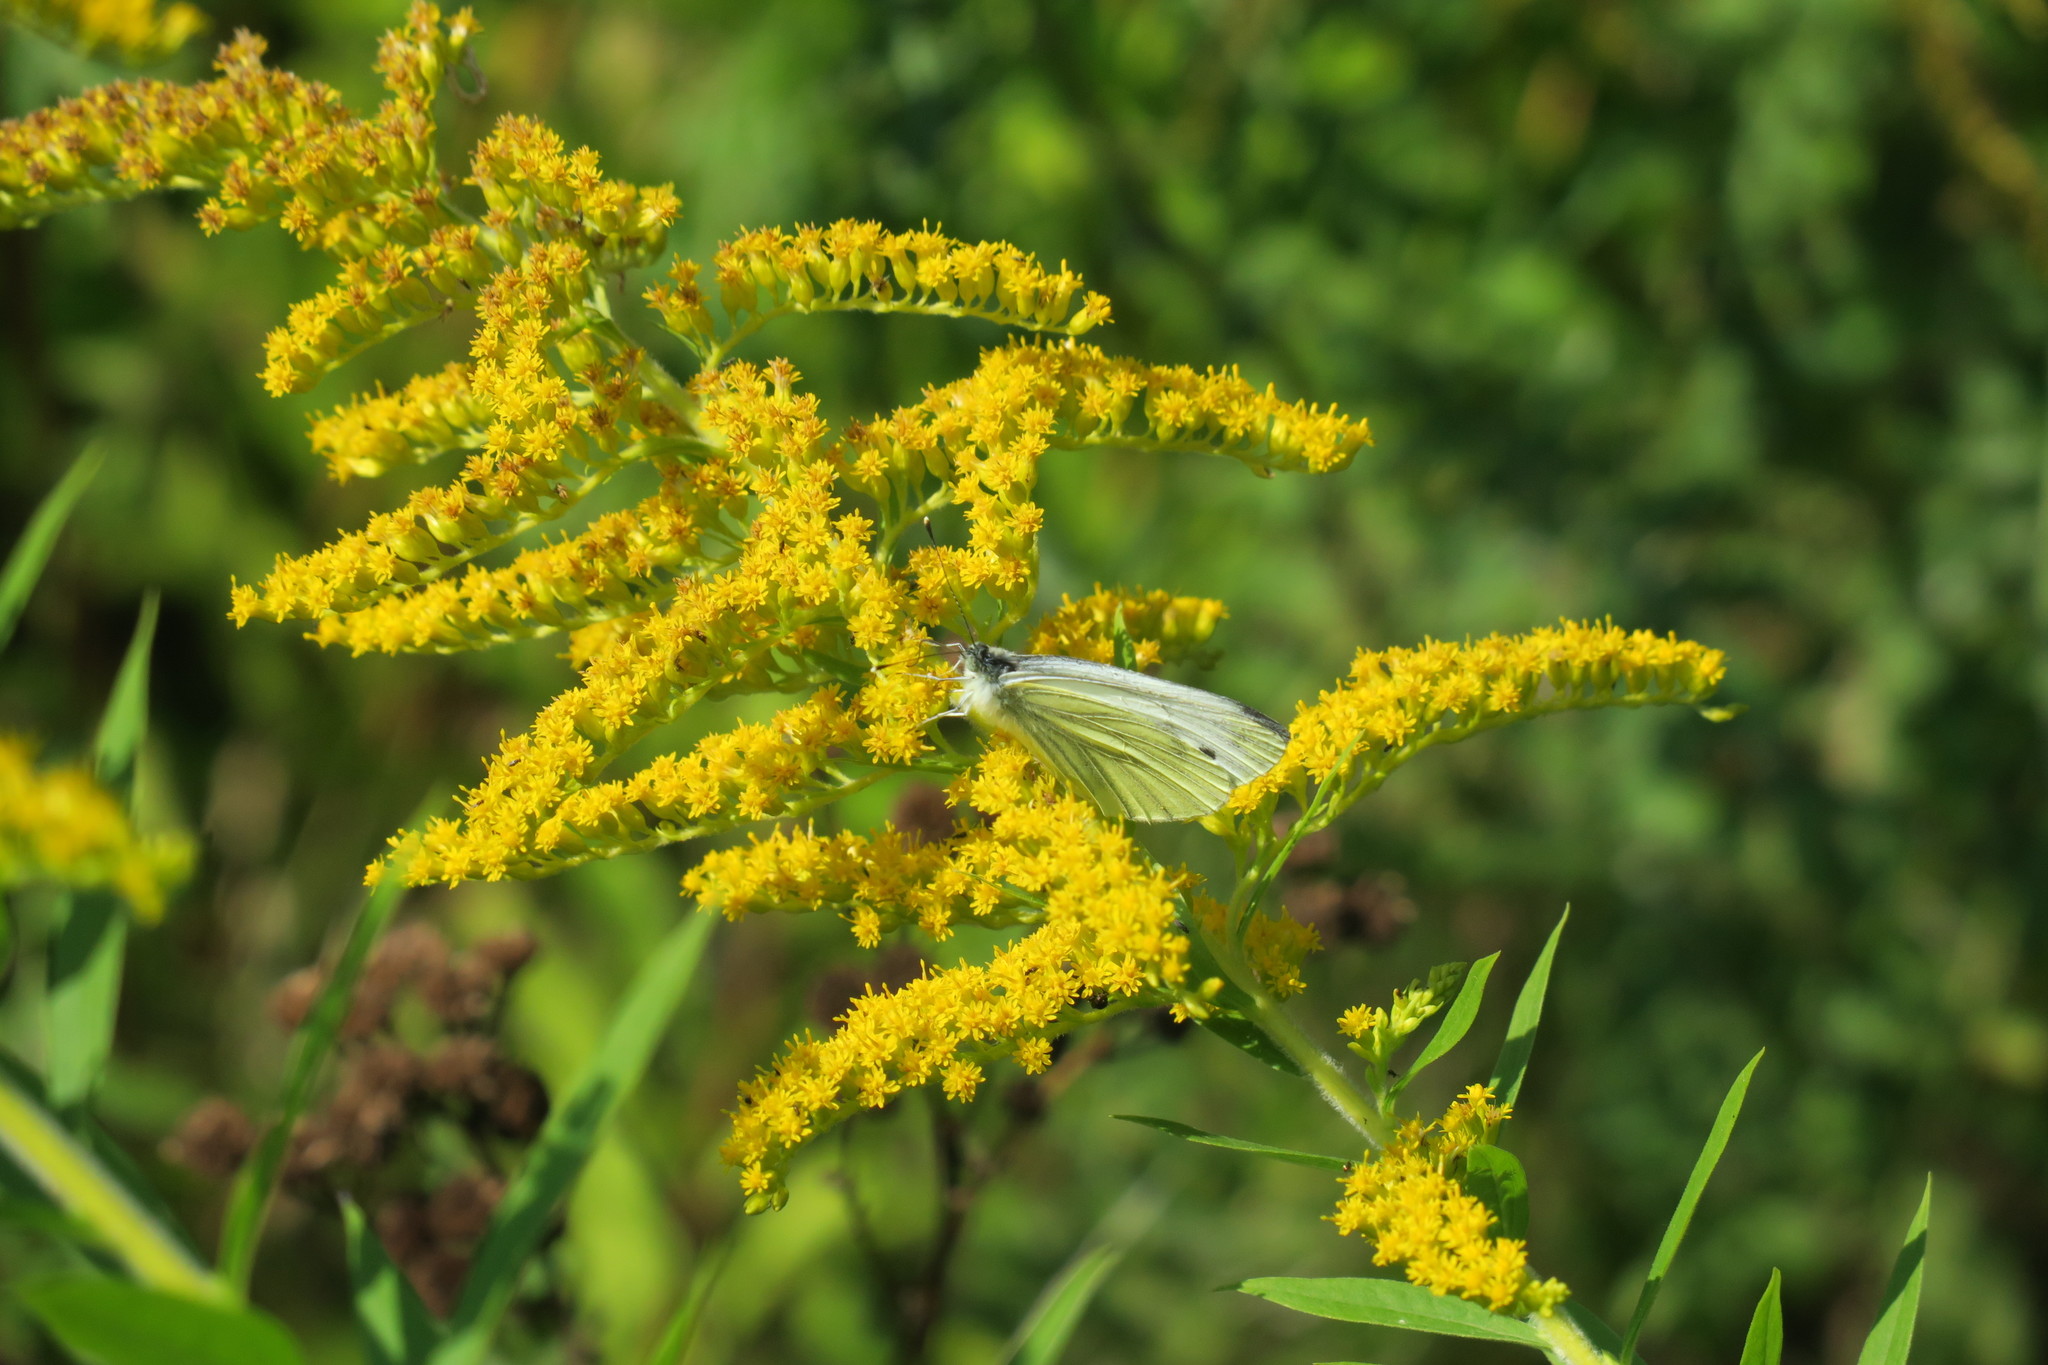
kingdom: Animalia
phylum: Arthropoda
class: Insecta
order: Lepidoptera
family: Pieridae
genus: Pieris
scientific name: Pieris napi
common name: Green-veined white
